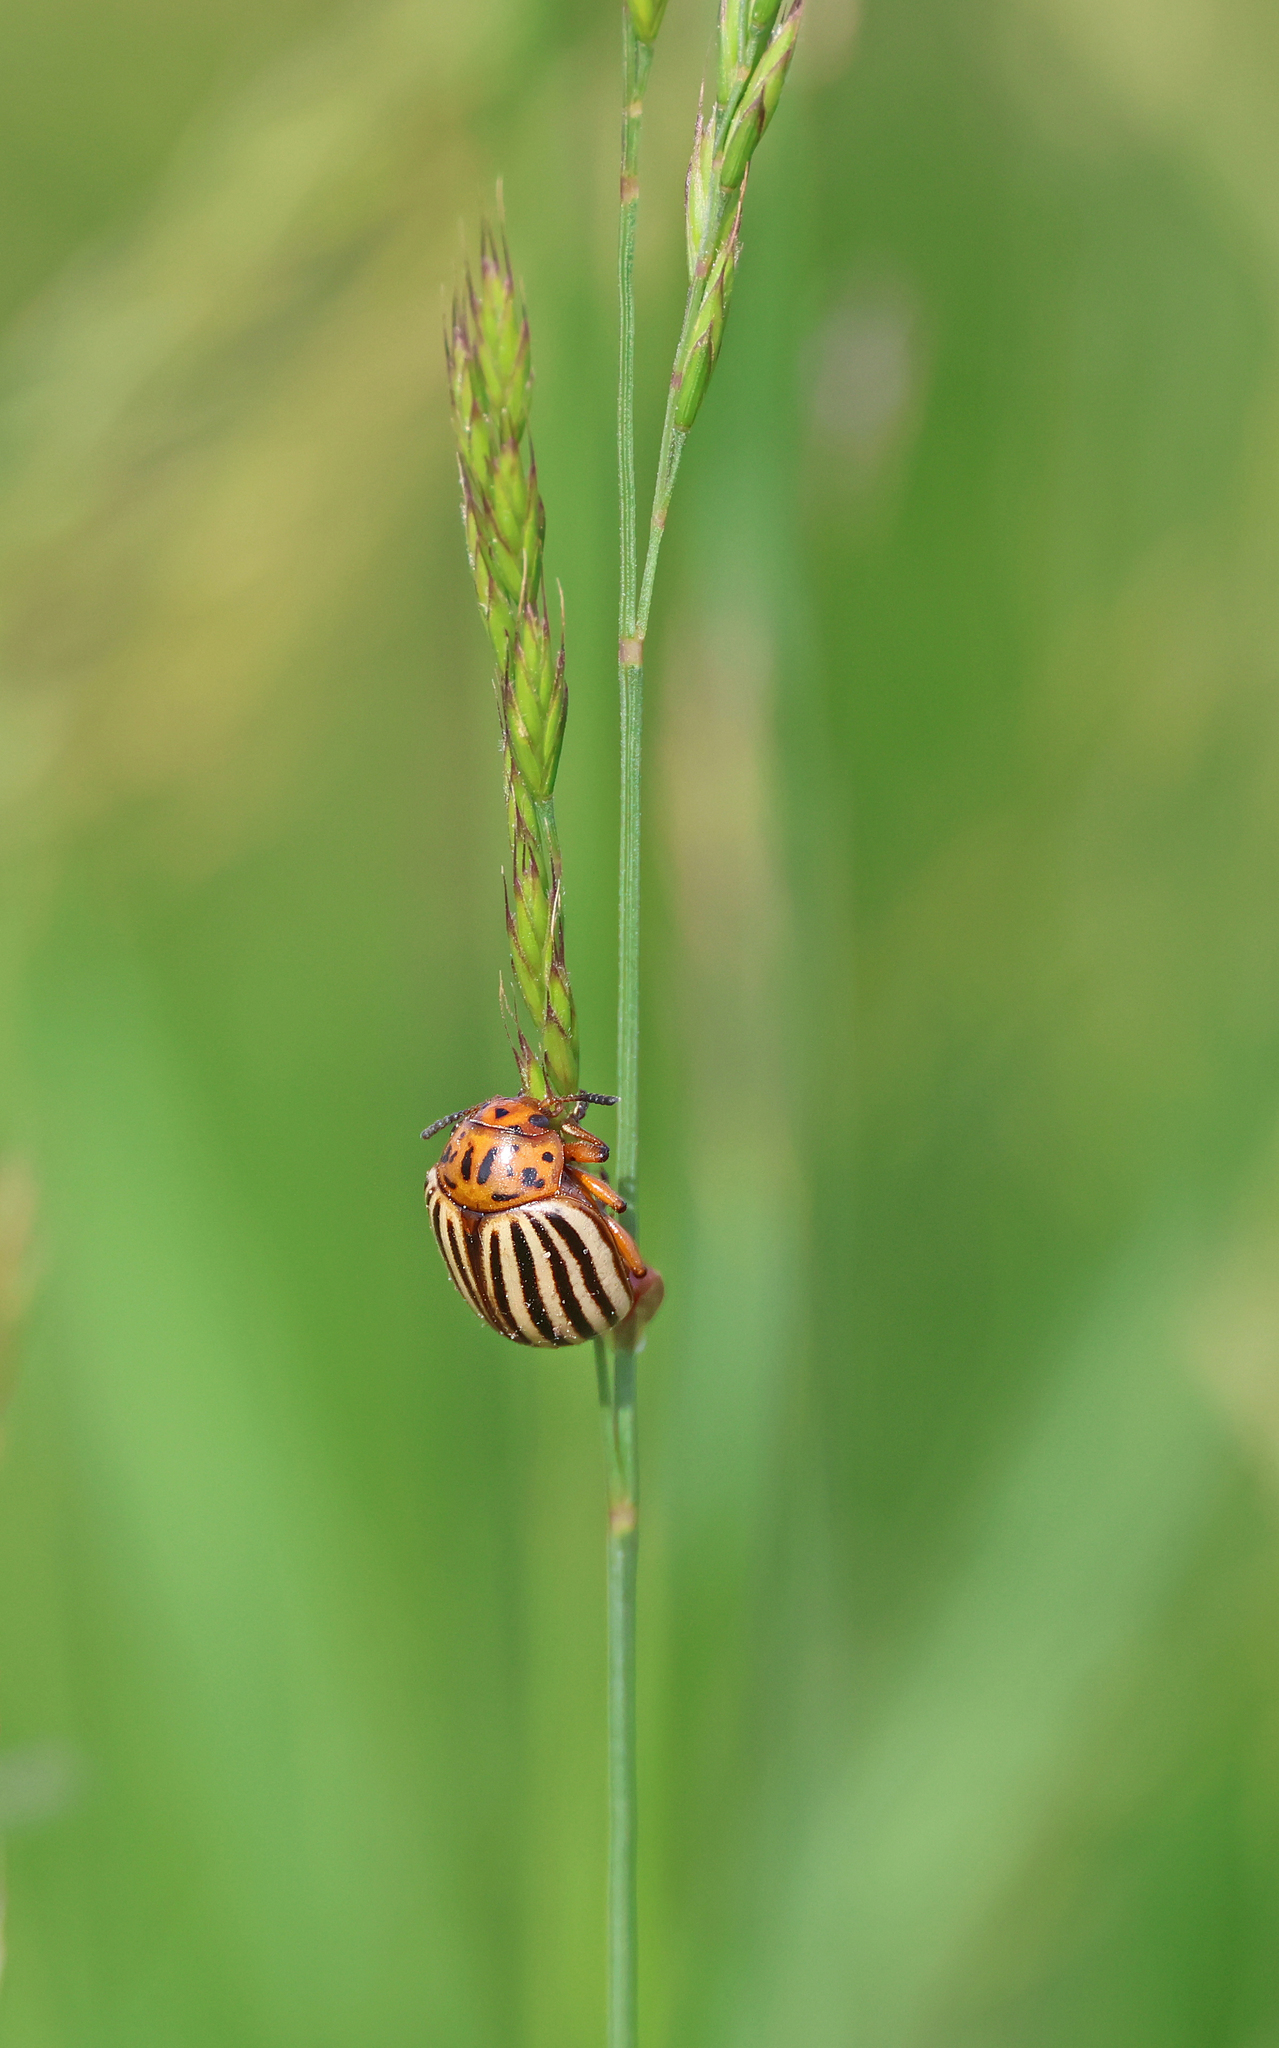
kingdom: Animalia
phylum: Arthropoda
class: Insecta
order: Coleoptera
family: Chrysomelidae
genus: Leptinotarsa
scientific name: Leptinotarsa decemlineata
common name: Colorado potato beetle
